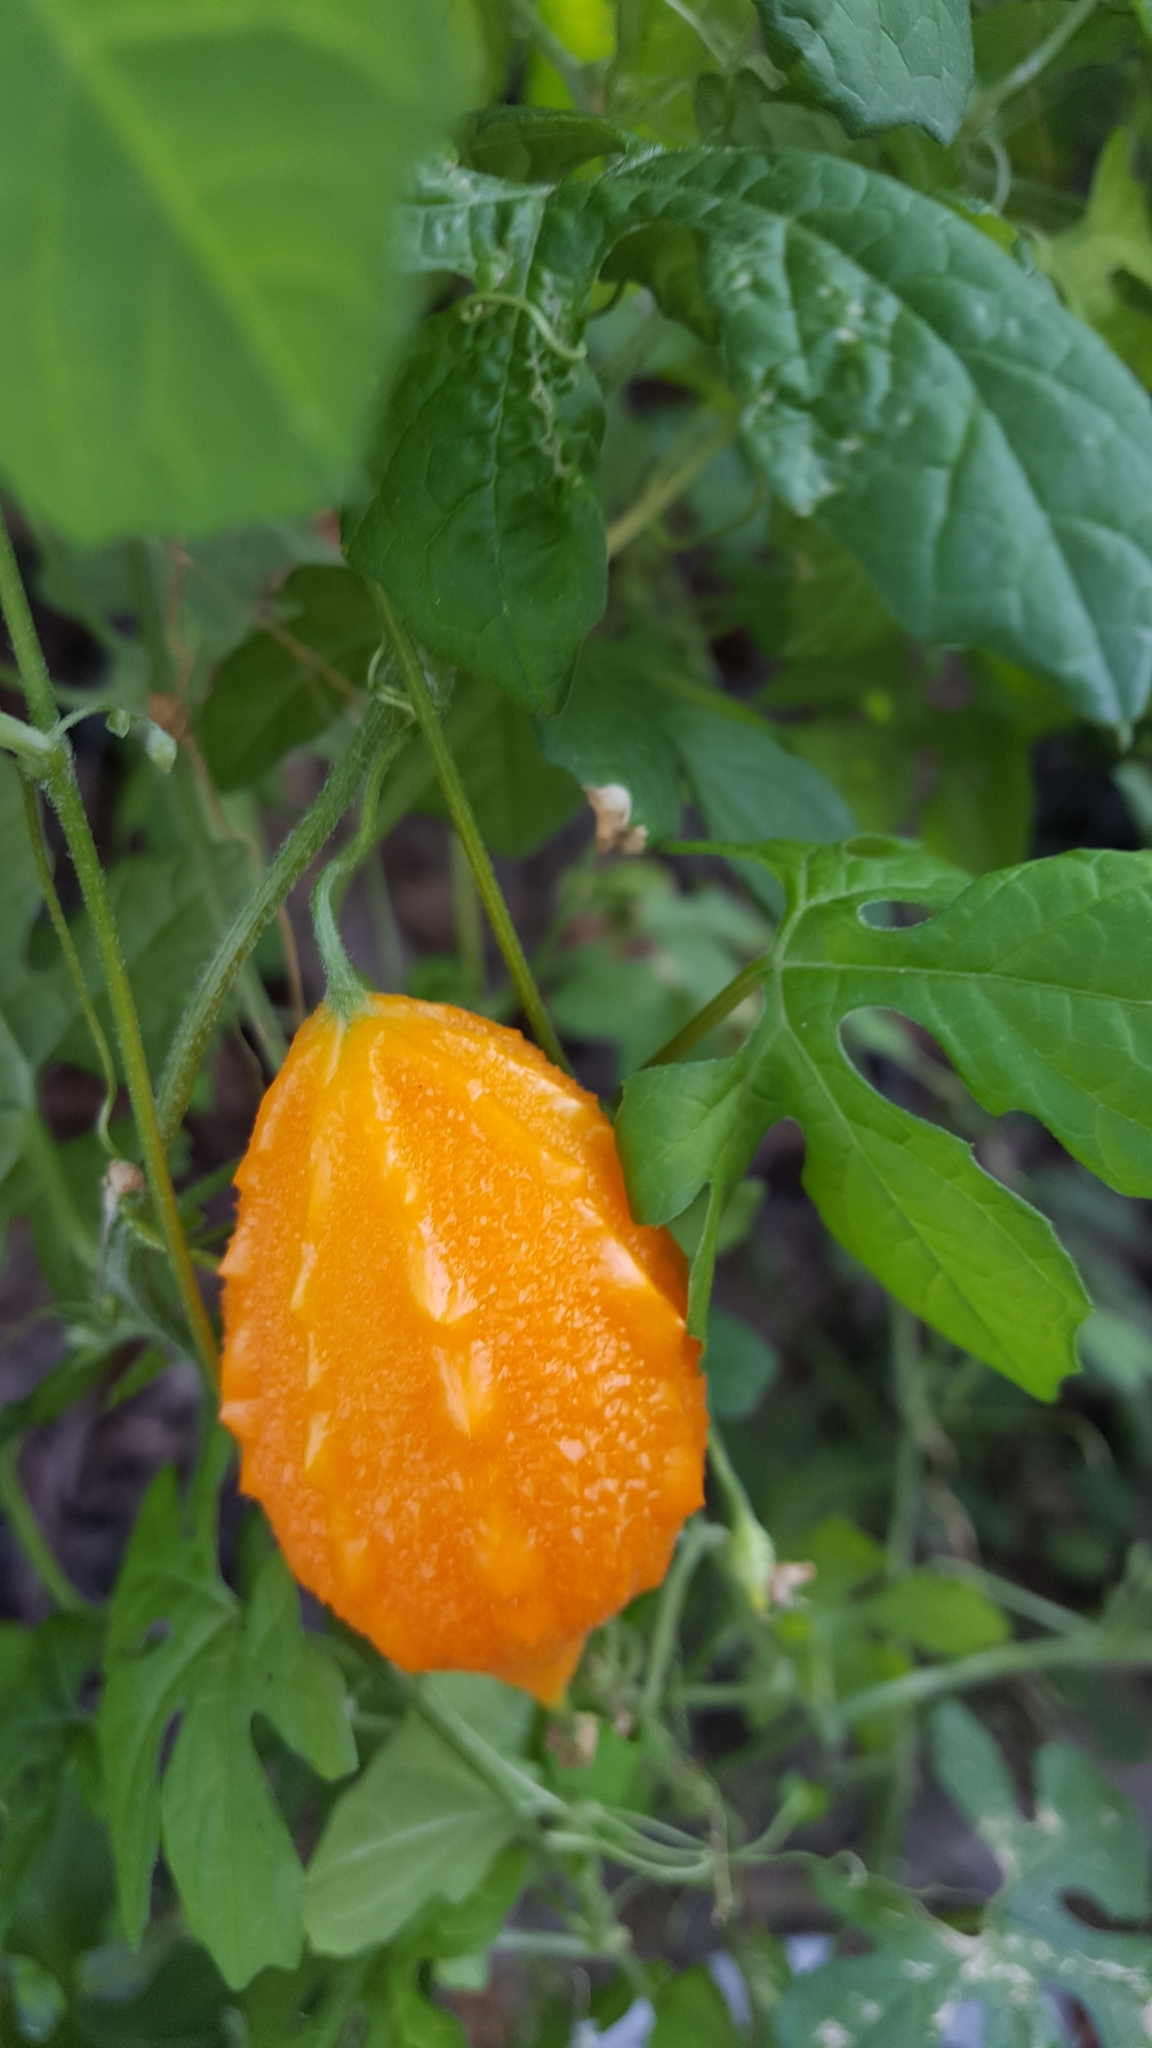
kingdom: Plantae
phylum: Tracheophyta
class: Magnoliopsida
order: Cucurbitales
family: Cucurbitaceae
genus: Momordica
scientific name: Momordica charantia
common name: Balsampear
